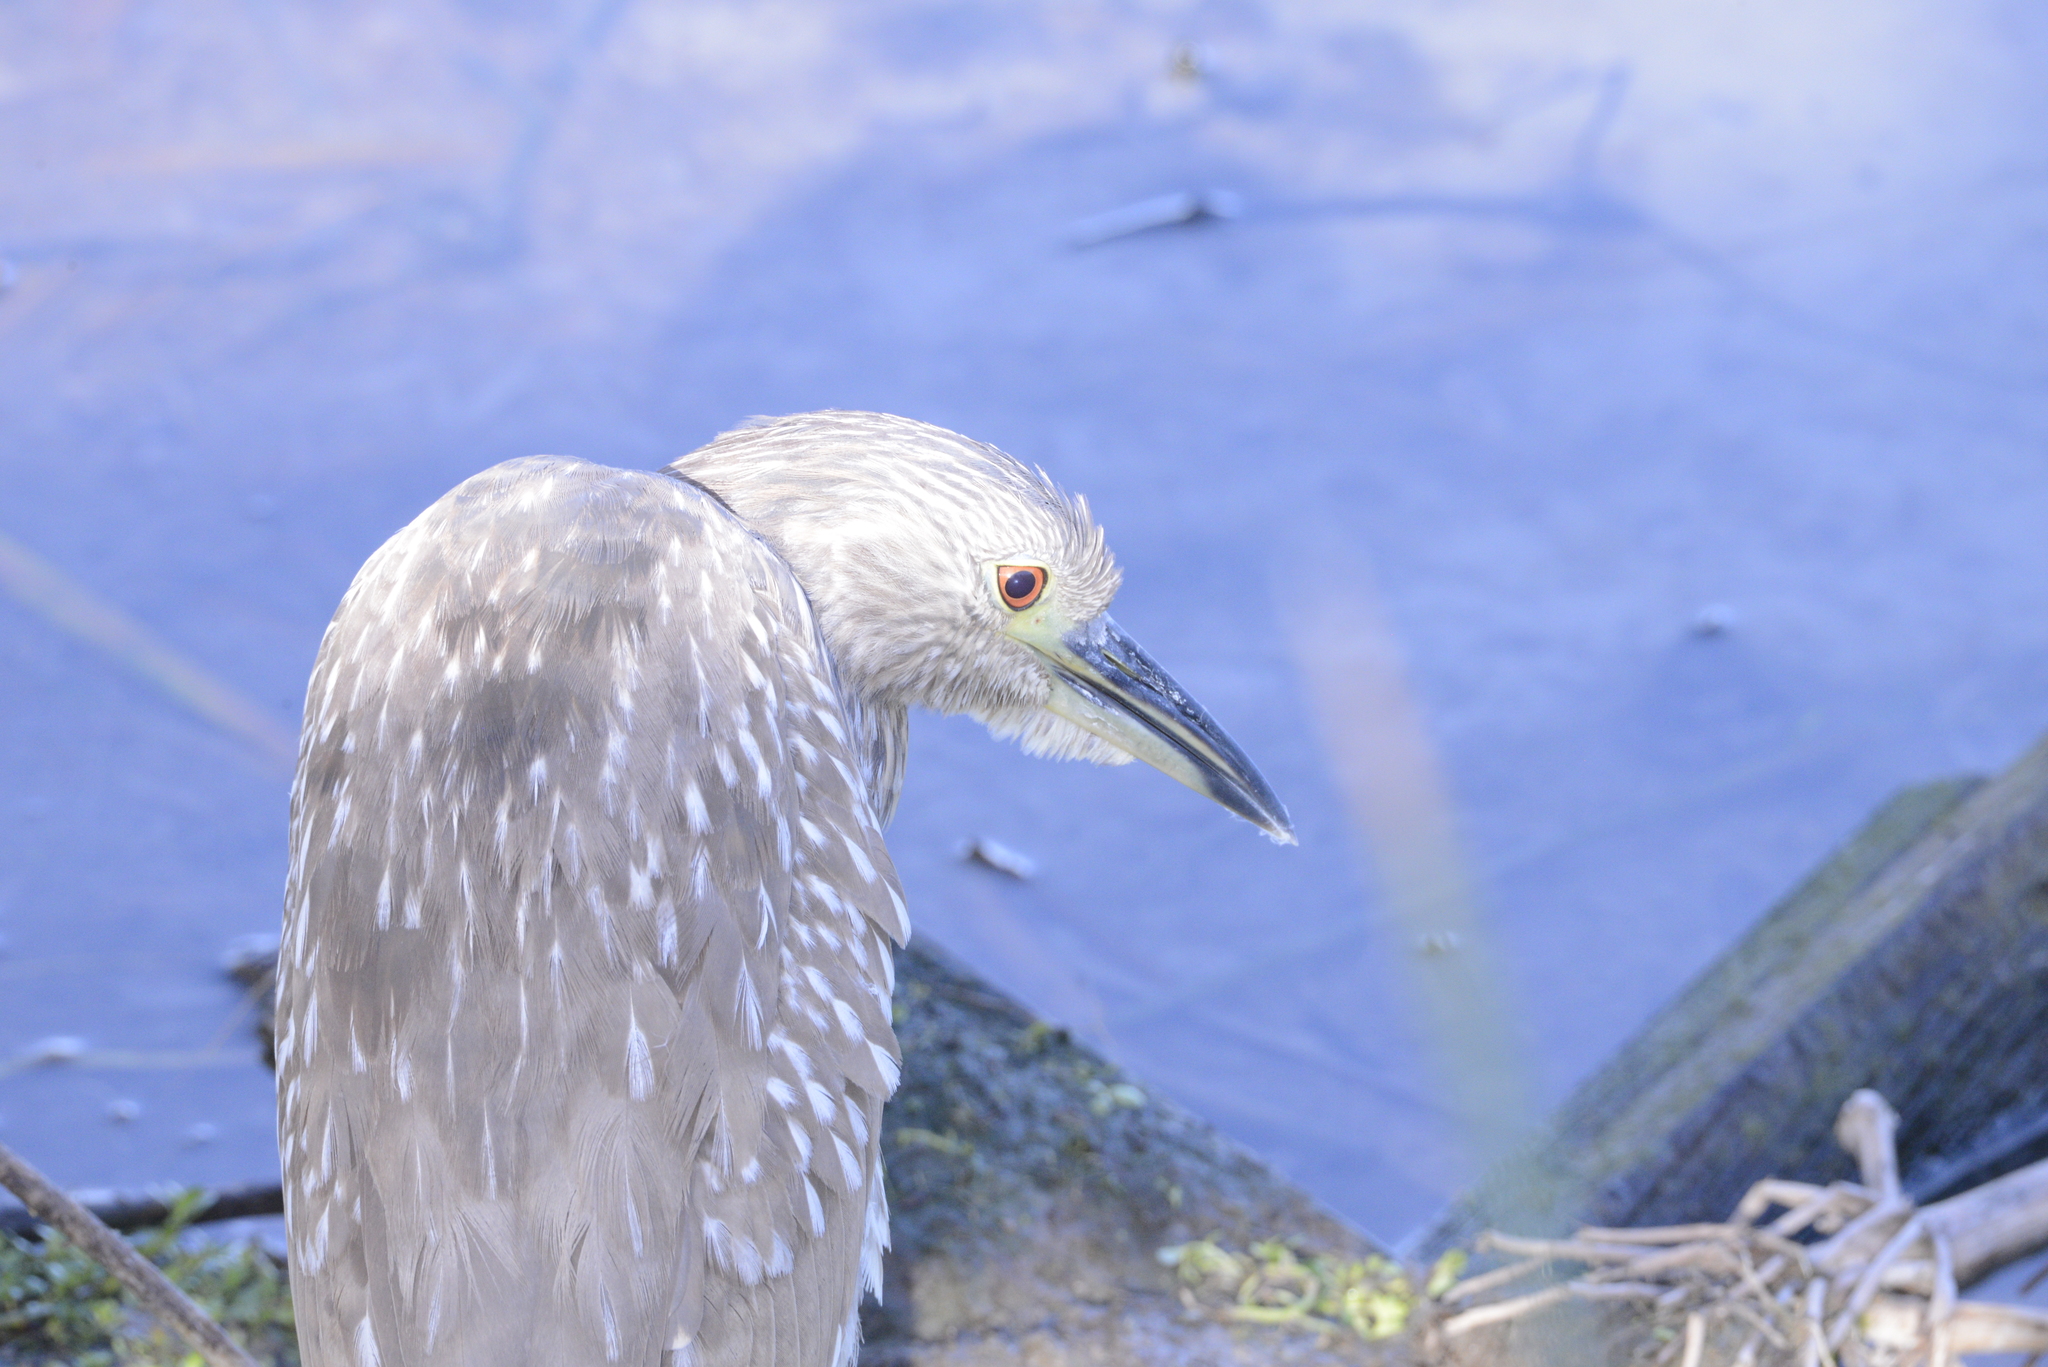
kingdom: Animalia
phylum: Chordata
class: Aves
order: Pelecaniformes
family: Ardeidae
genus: Nycticorax
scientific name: Nycticorax nycticorax
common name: Black-crowned night heron
